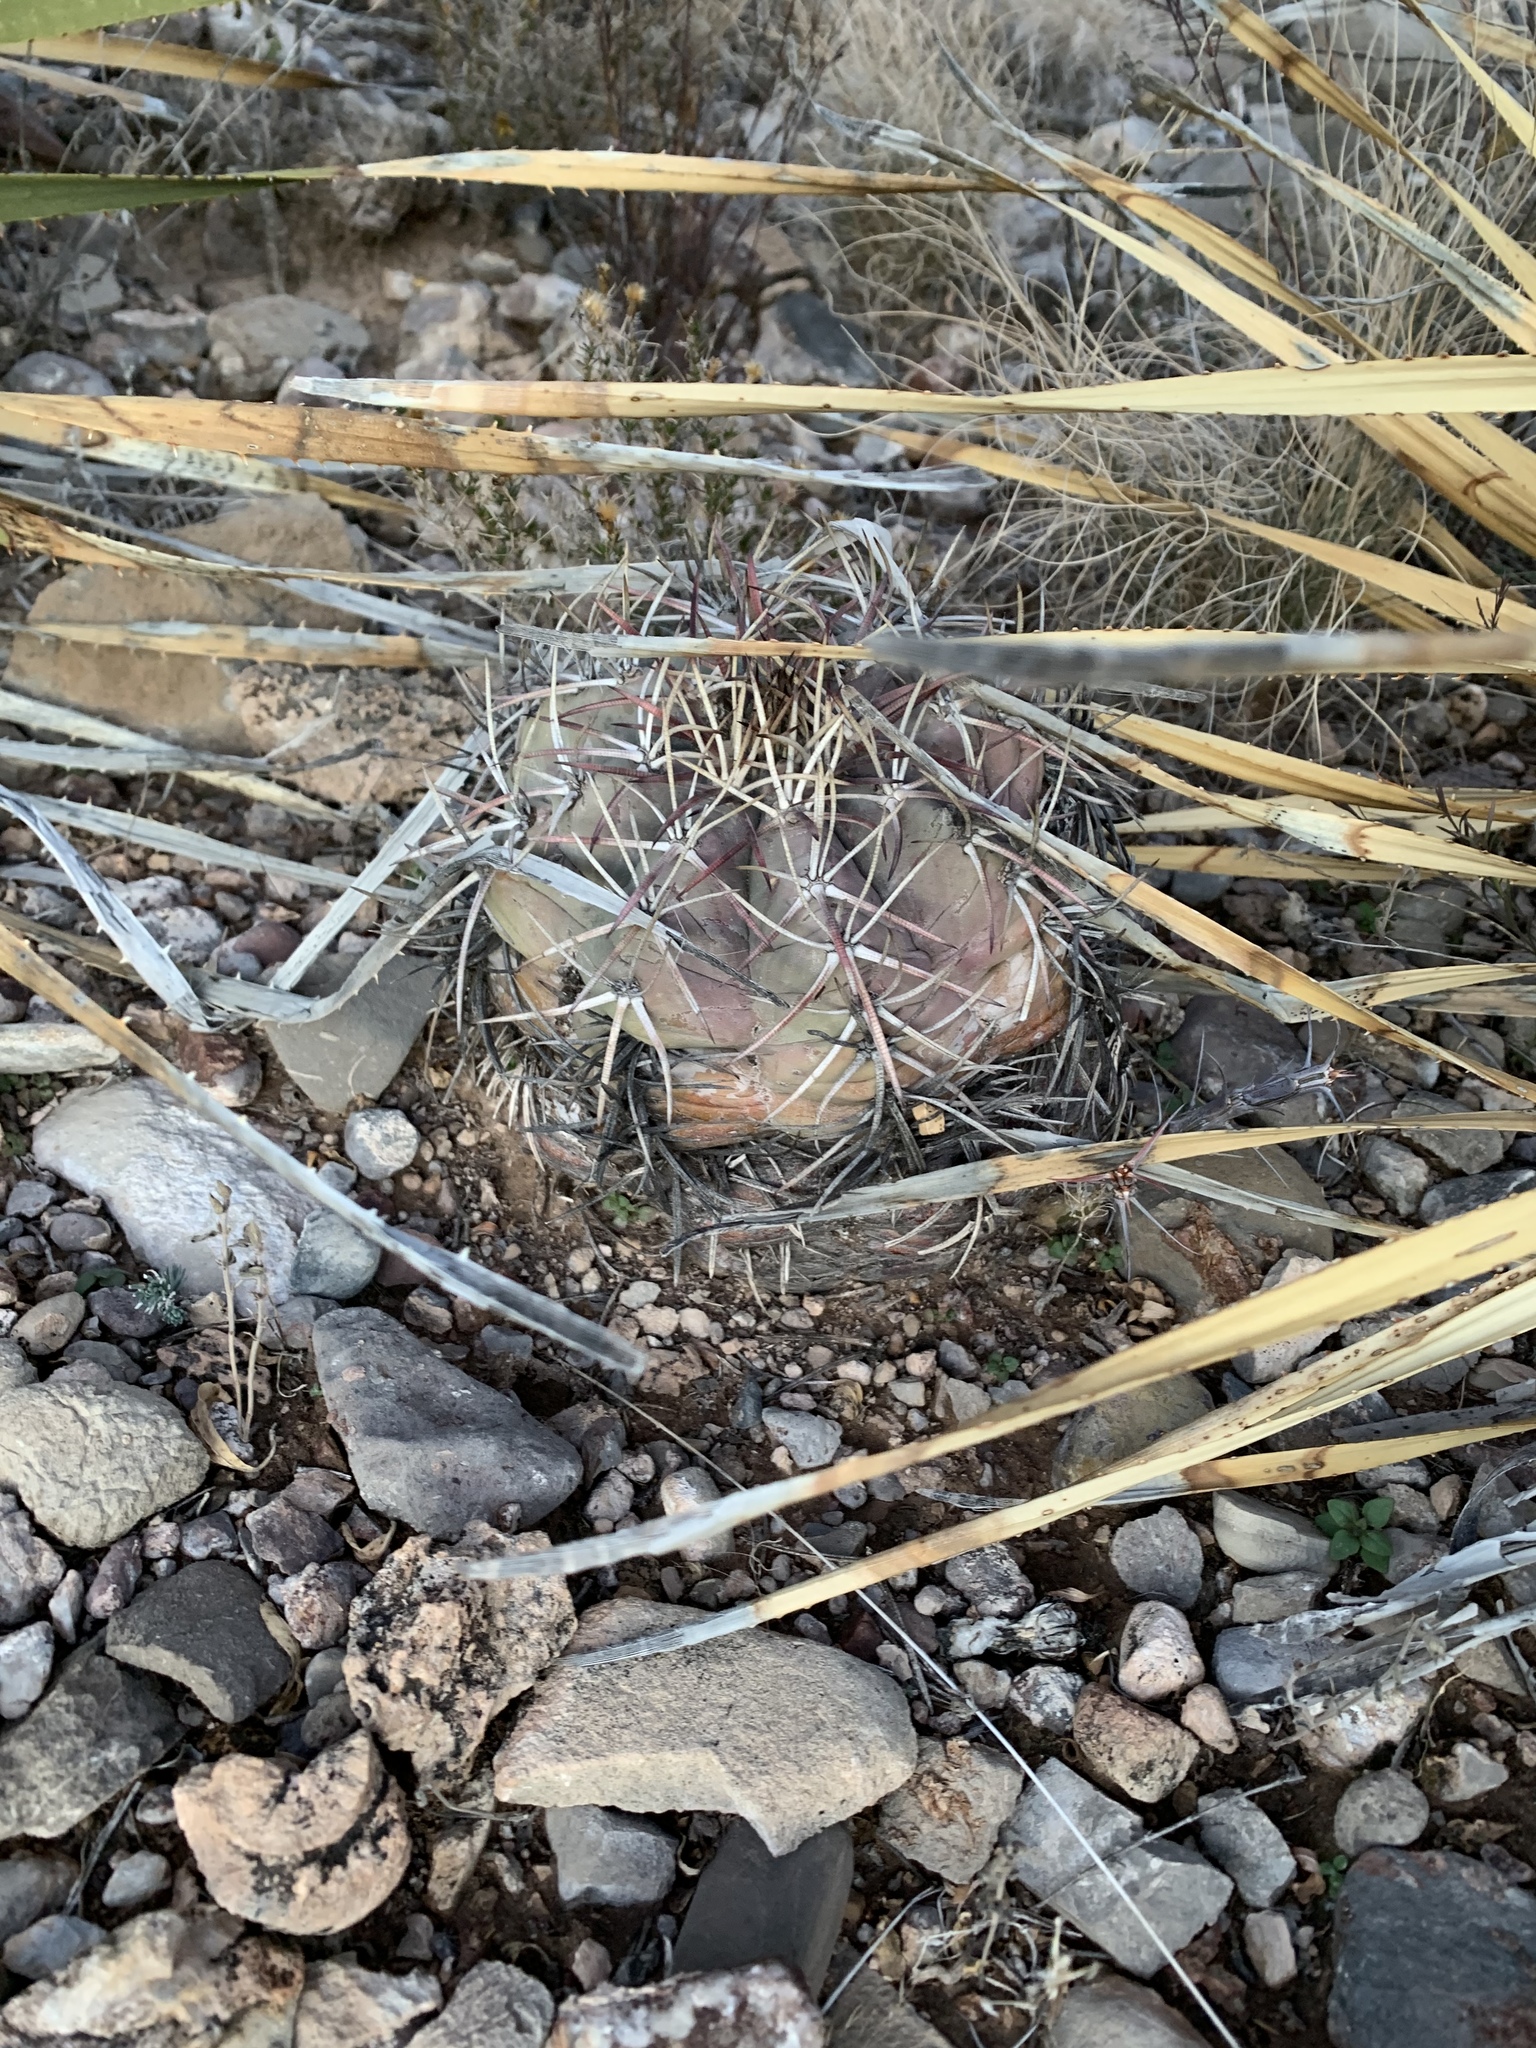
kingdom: Plantae
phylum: Tracheophyta
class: Magnoliopsida
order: Caryophyllales
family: Cactaceae
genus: Echinocactus
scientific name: Echinocactus horizonthalonius
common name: Devilshead
